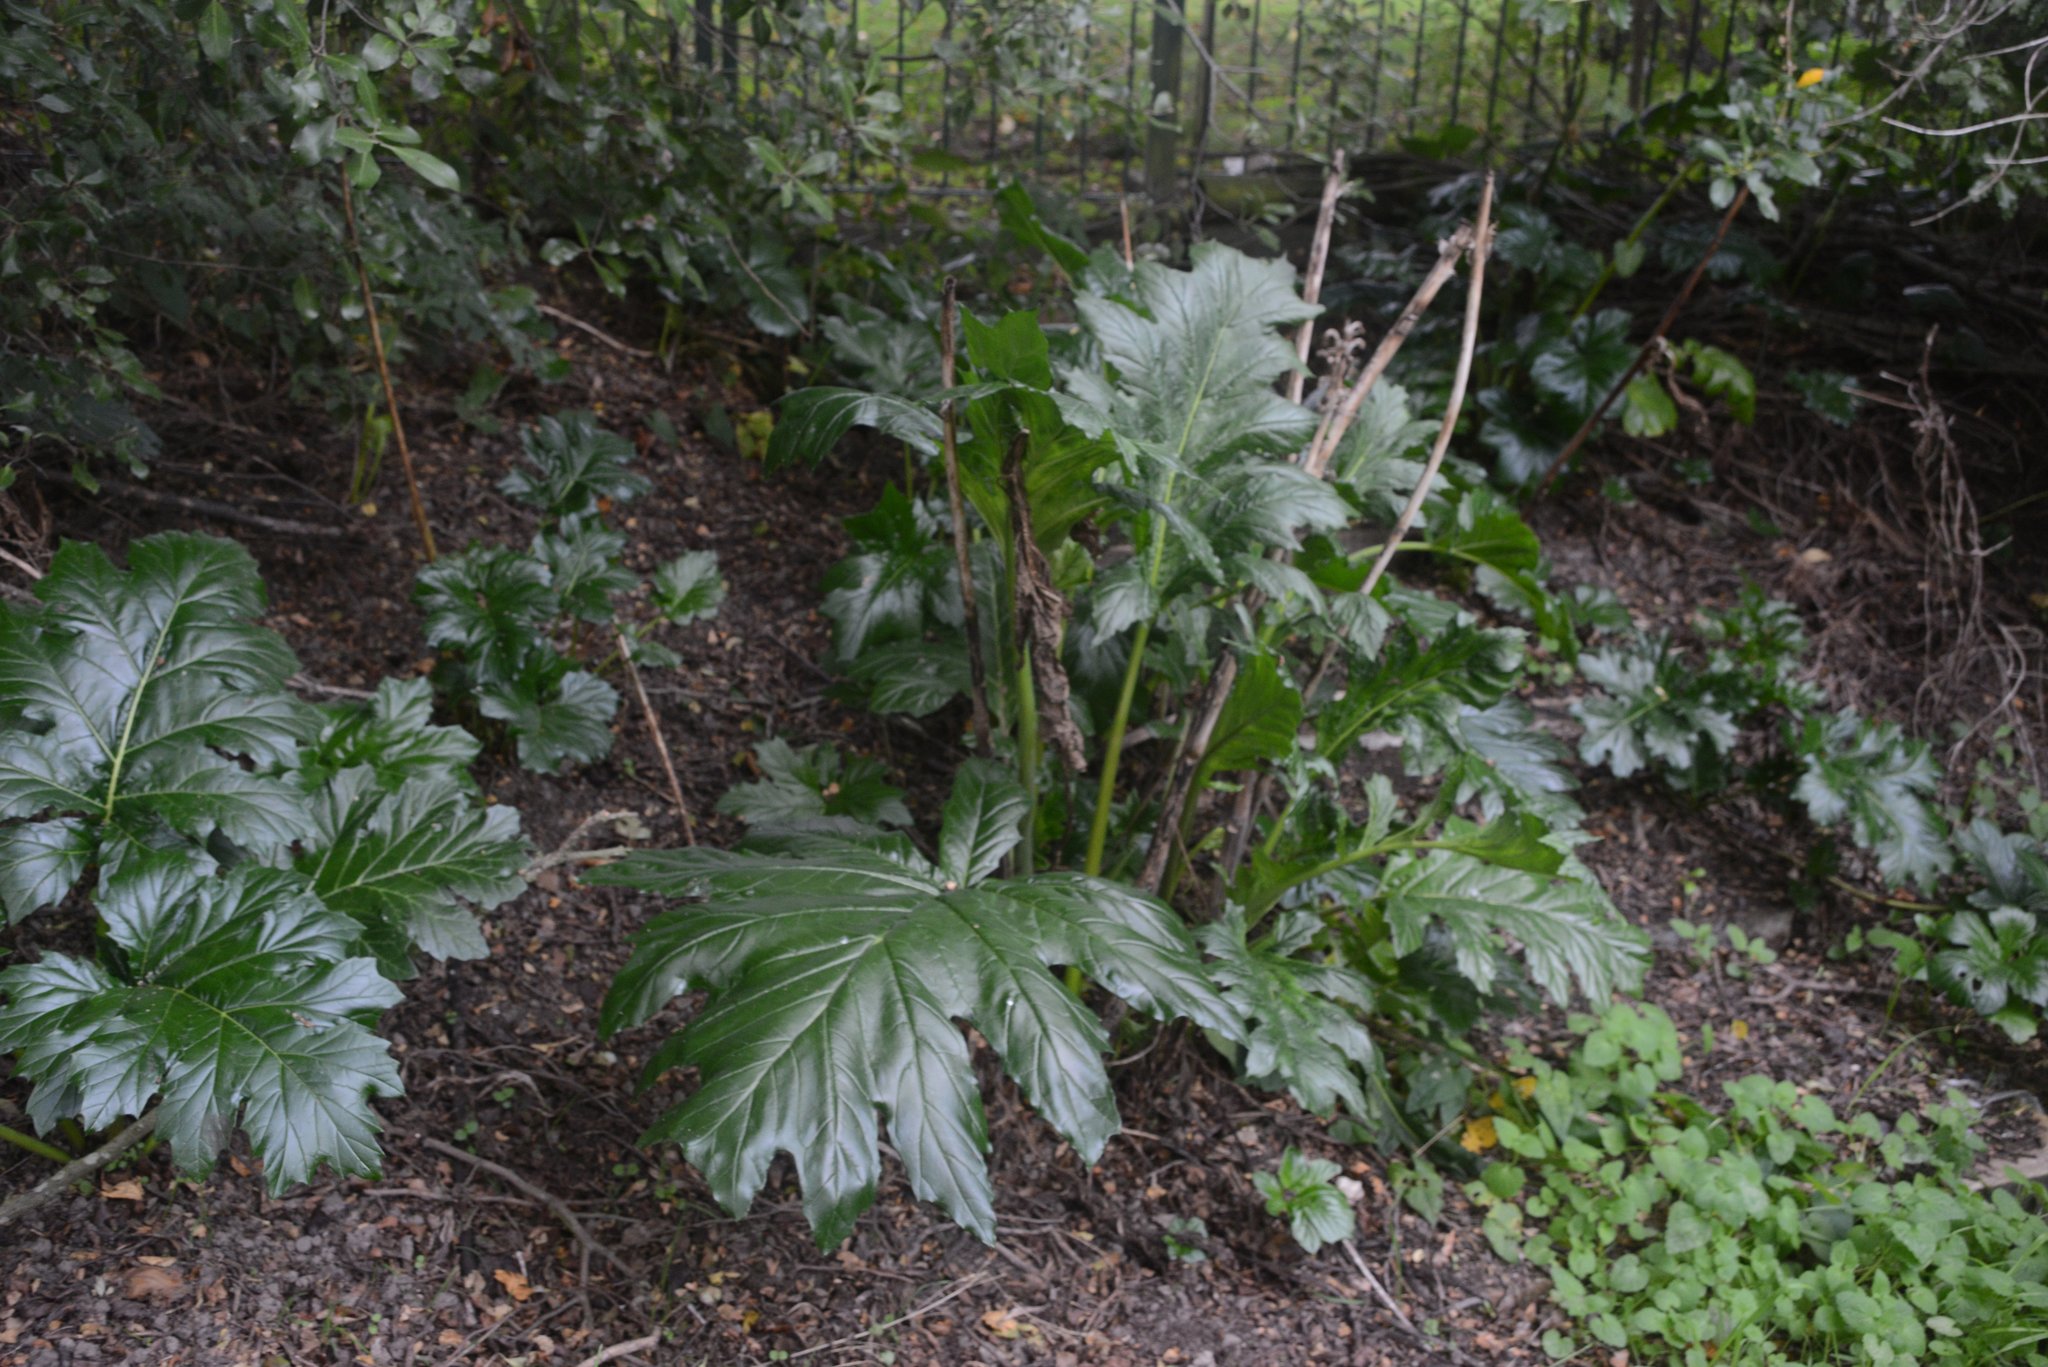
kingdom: Plantae
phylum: Tracheophyta
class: Magnoliopsida
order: Lamiales
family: Acanthaceae
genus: Acanthus
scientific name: Acanthus mollis
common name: Bear's-breech
